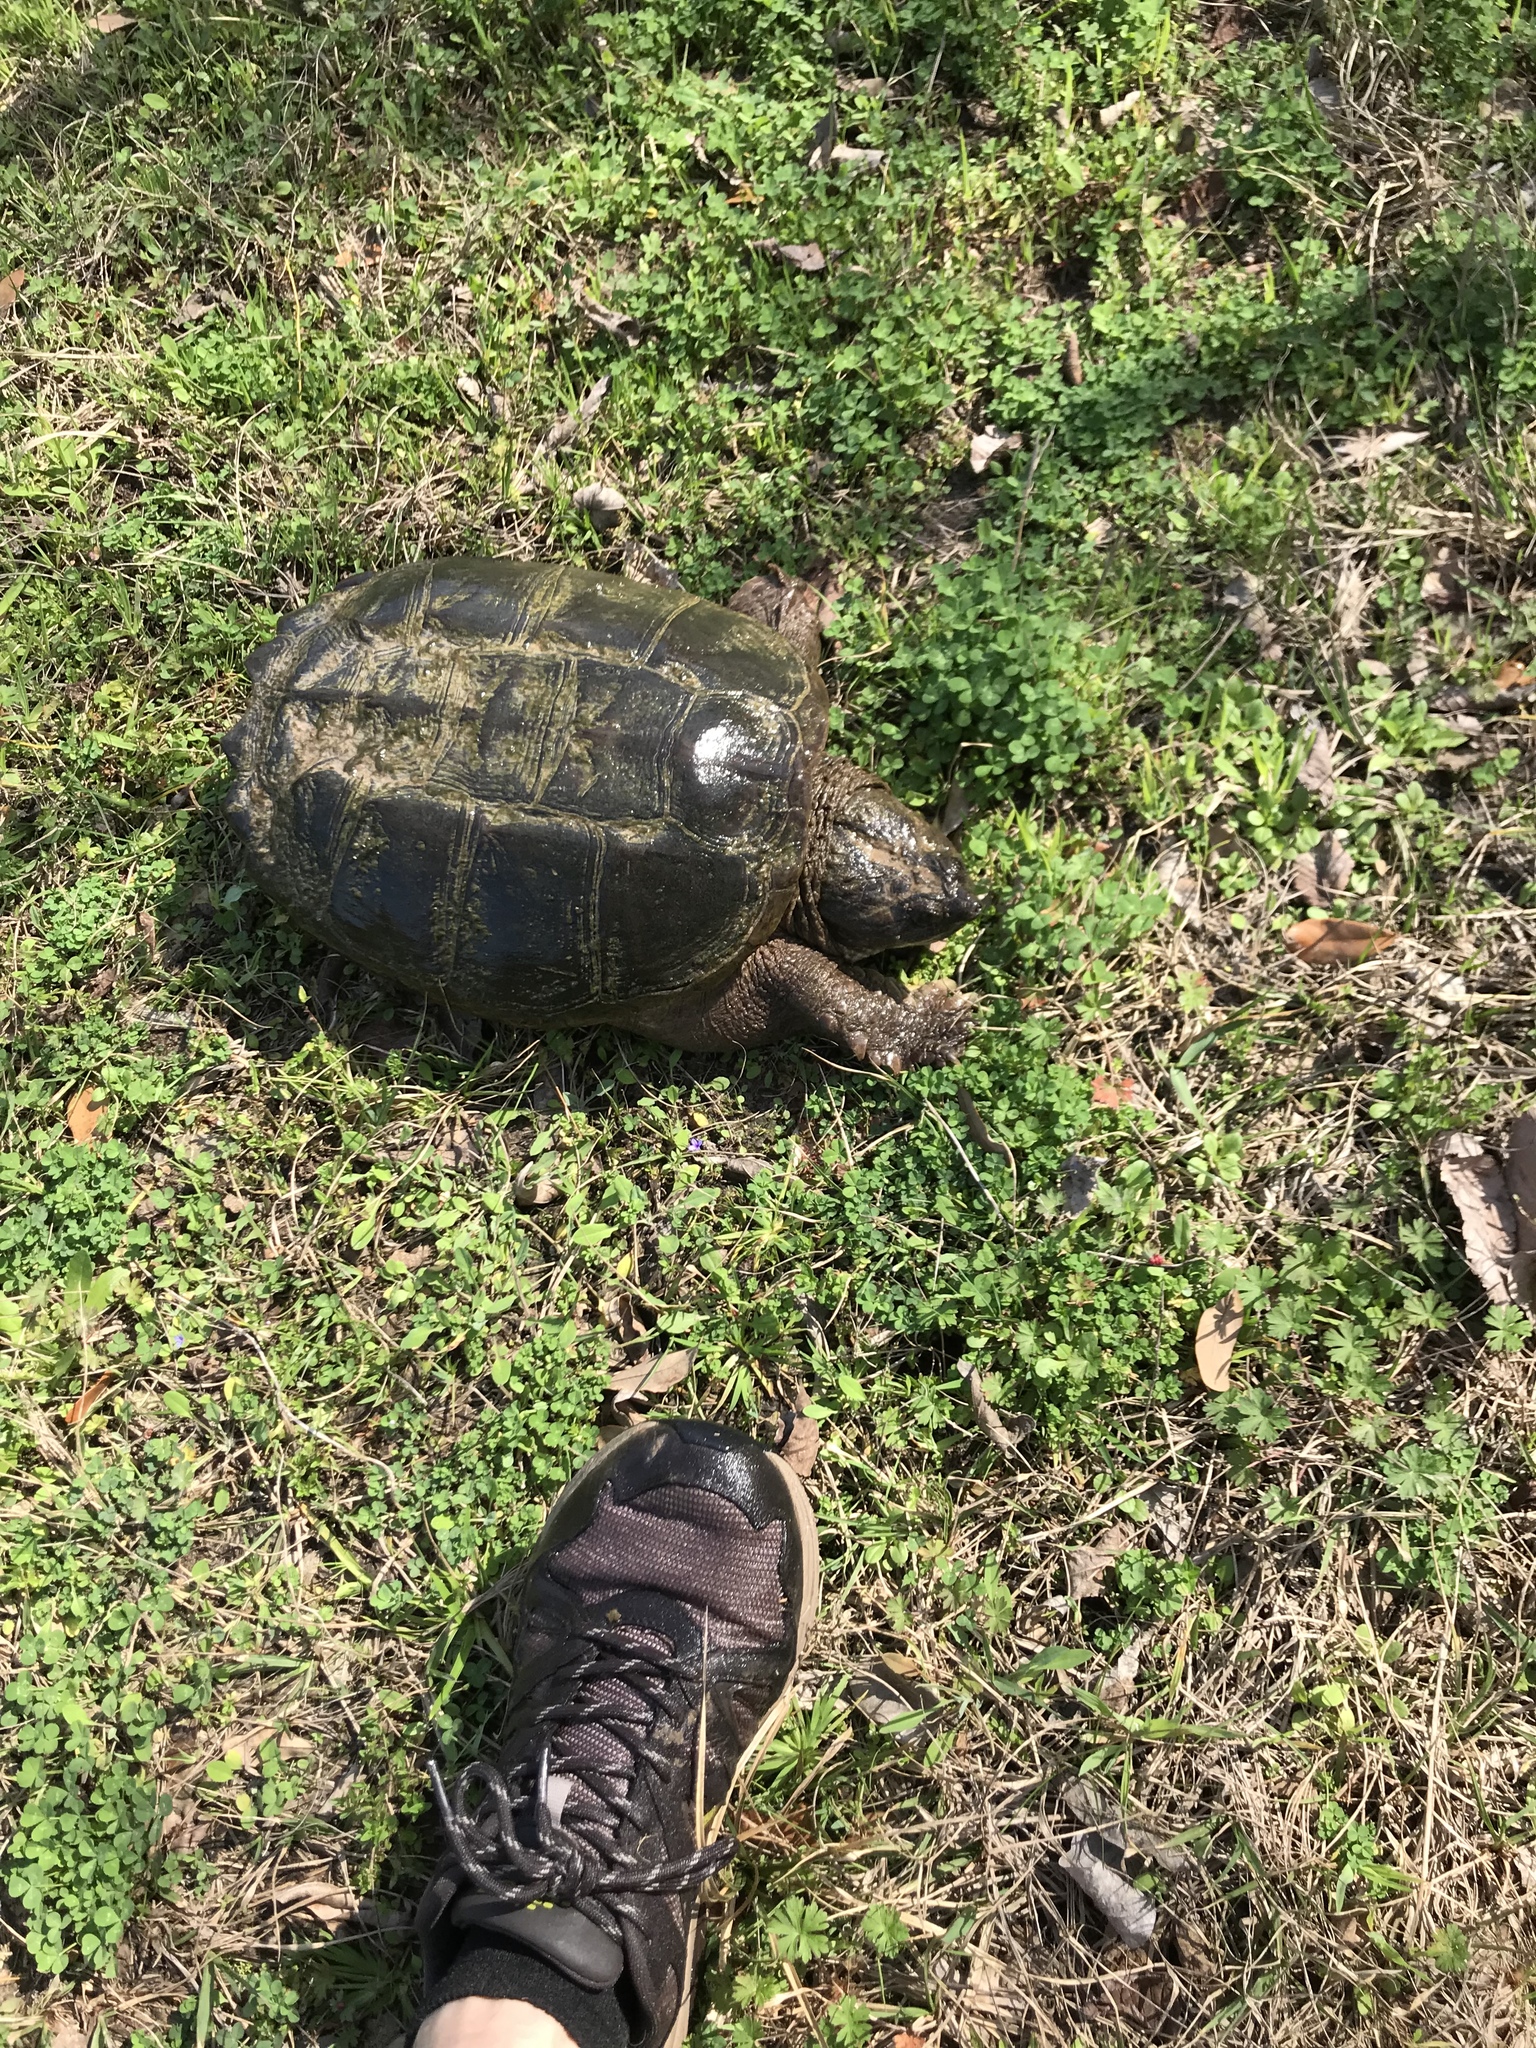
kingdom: Animalia
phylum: Chordata
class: Testudines
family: Chelydridae
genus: Chelydra
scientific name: Chelydra serpentina
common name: Common snapping turtle
